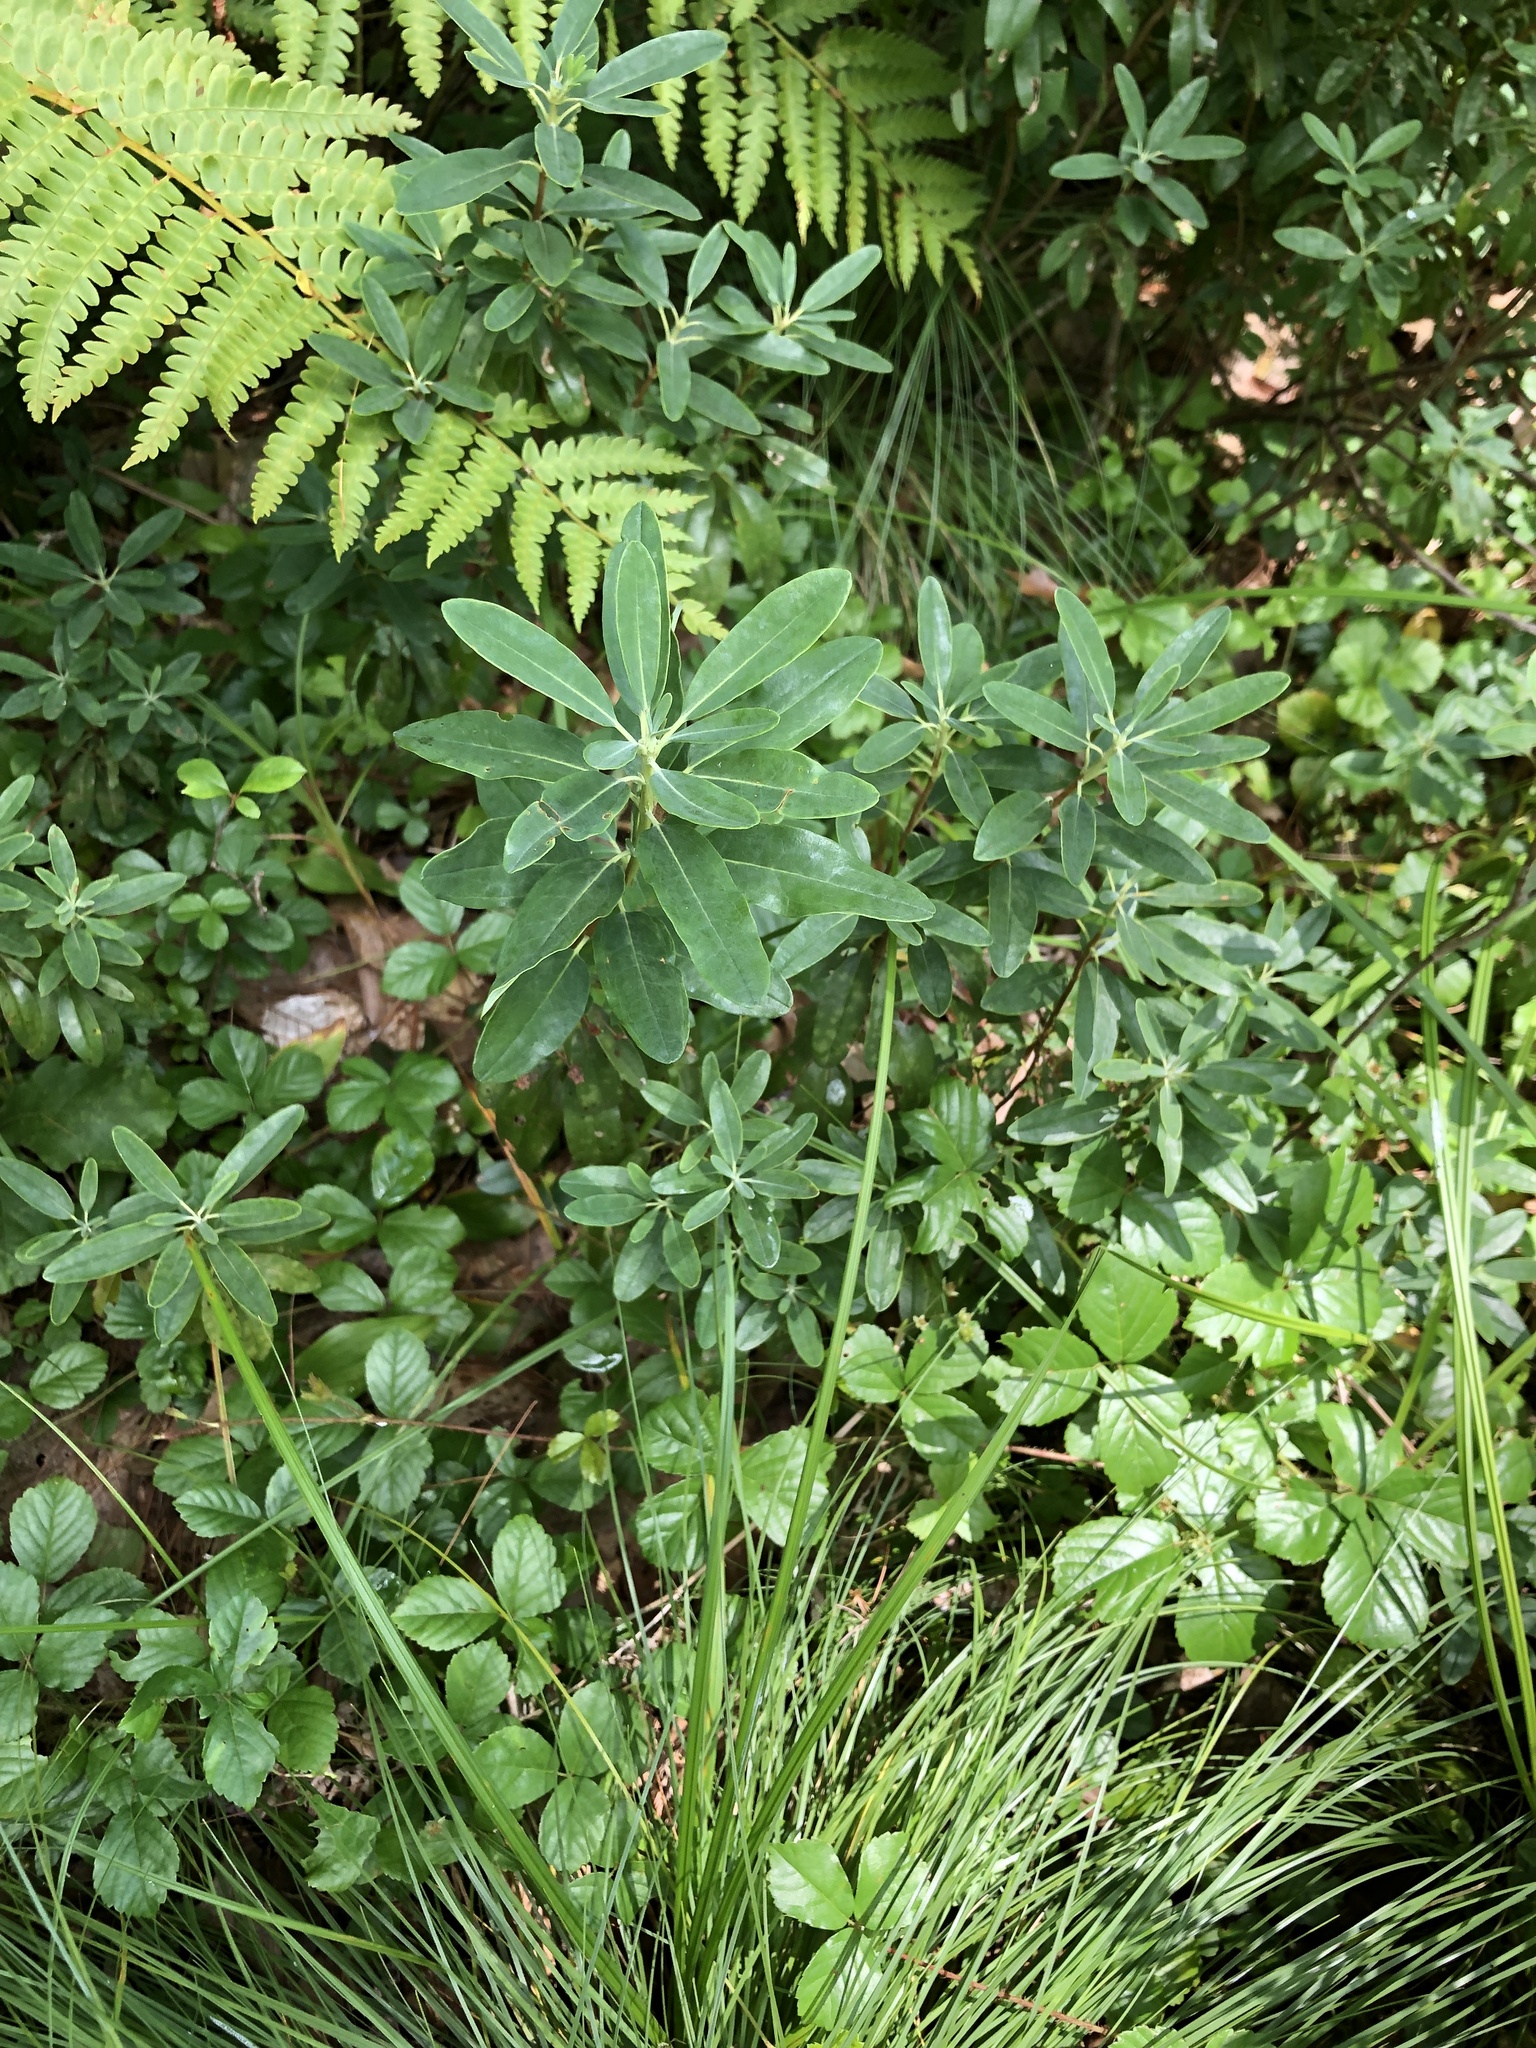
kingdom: Plantae
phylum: Tracheophyta
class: Magnoliopsida
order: Ericales
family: Ericaceae
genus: Kalmia
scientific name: Kalmia angustifolia
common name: Sheep-laurel
